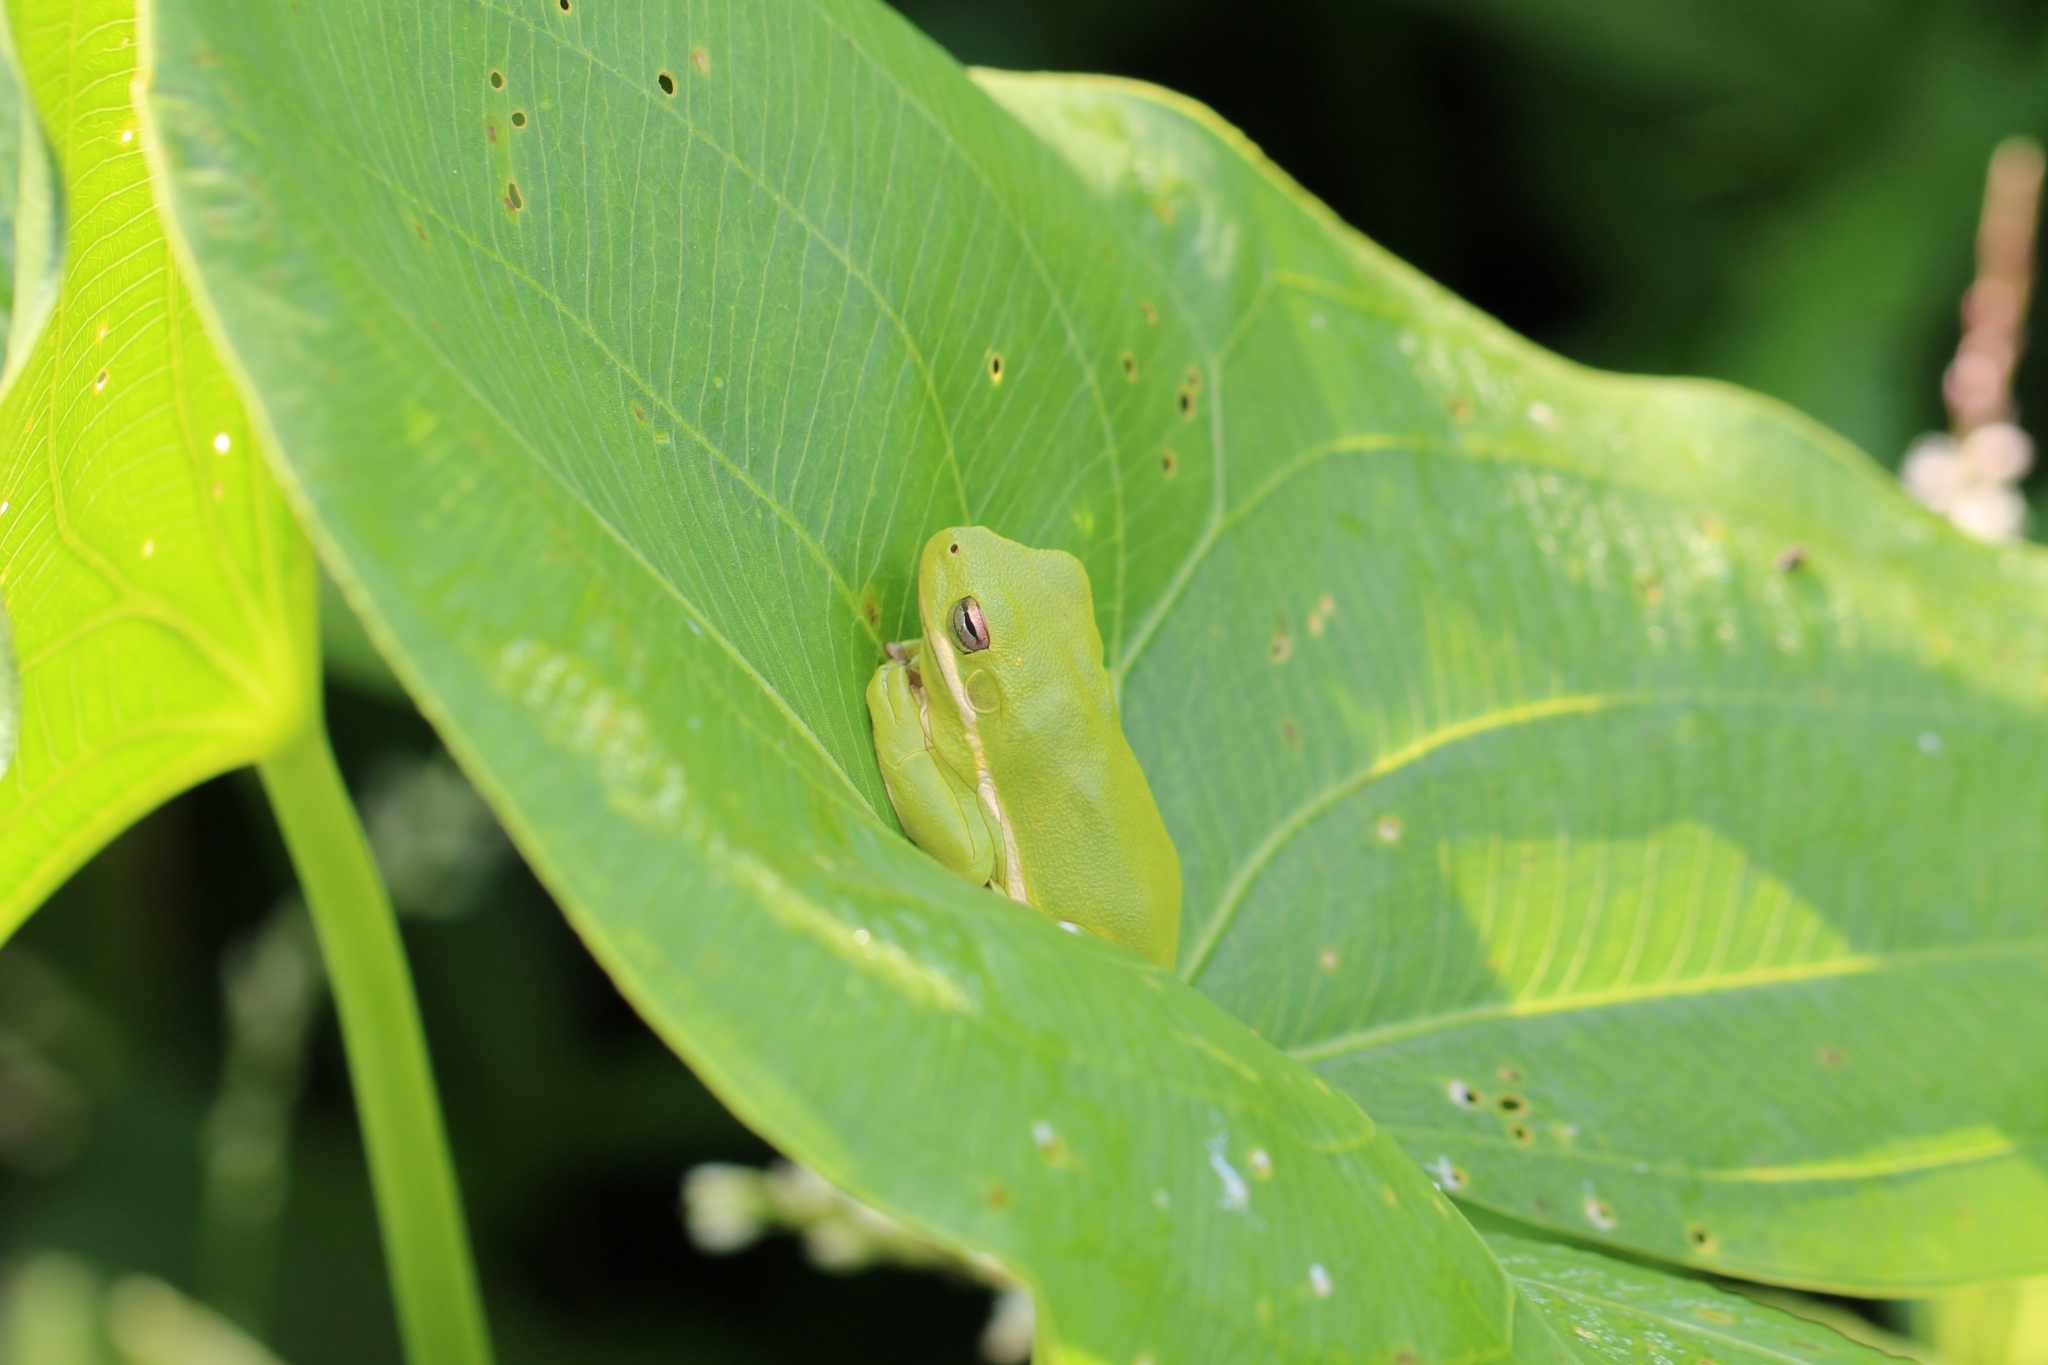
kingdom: Animalia
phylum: Chordata
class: Amphibia
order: Anura
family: Hylidae
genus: Dryophytes
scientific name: Dryophytes cinereus
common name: Green treefrog
